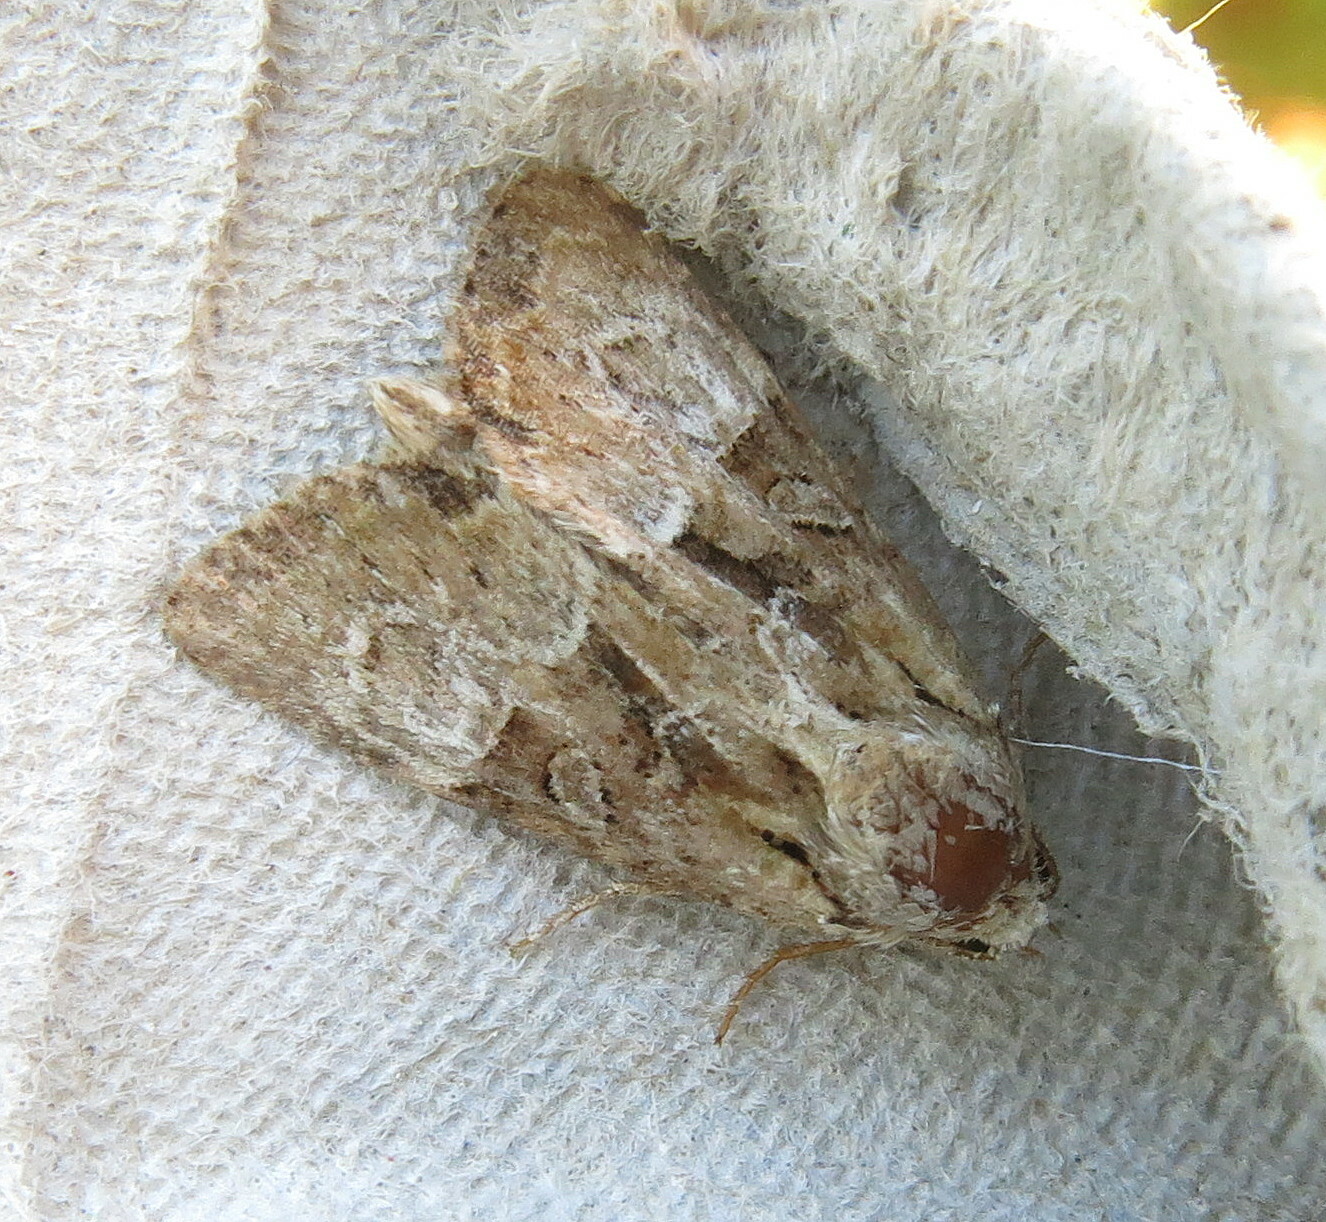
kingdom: Animalia
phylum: Arthropoda
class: Insecta
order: Lepidoptera
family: Noctuidae
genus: Mesoligia
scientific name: Mesoligia furuncula
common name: Cloaked minor
